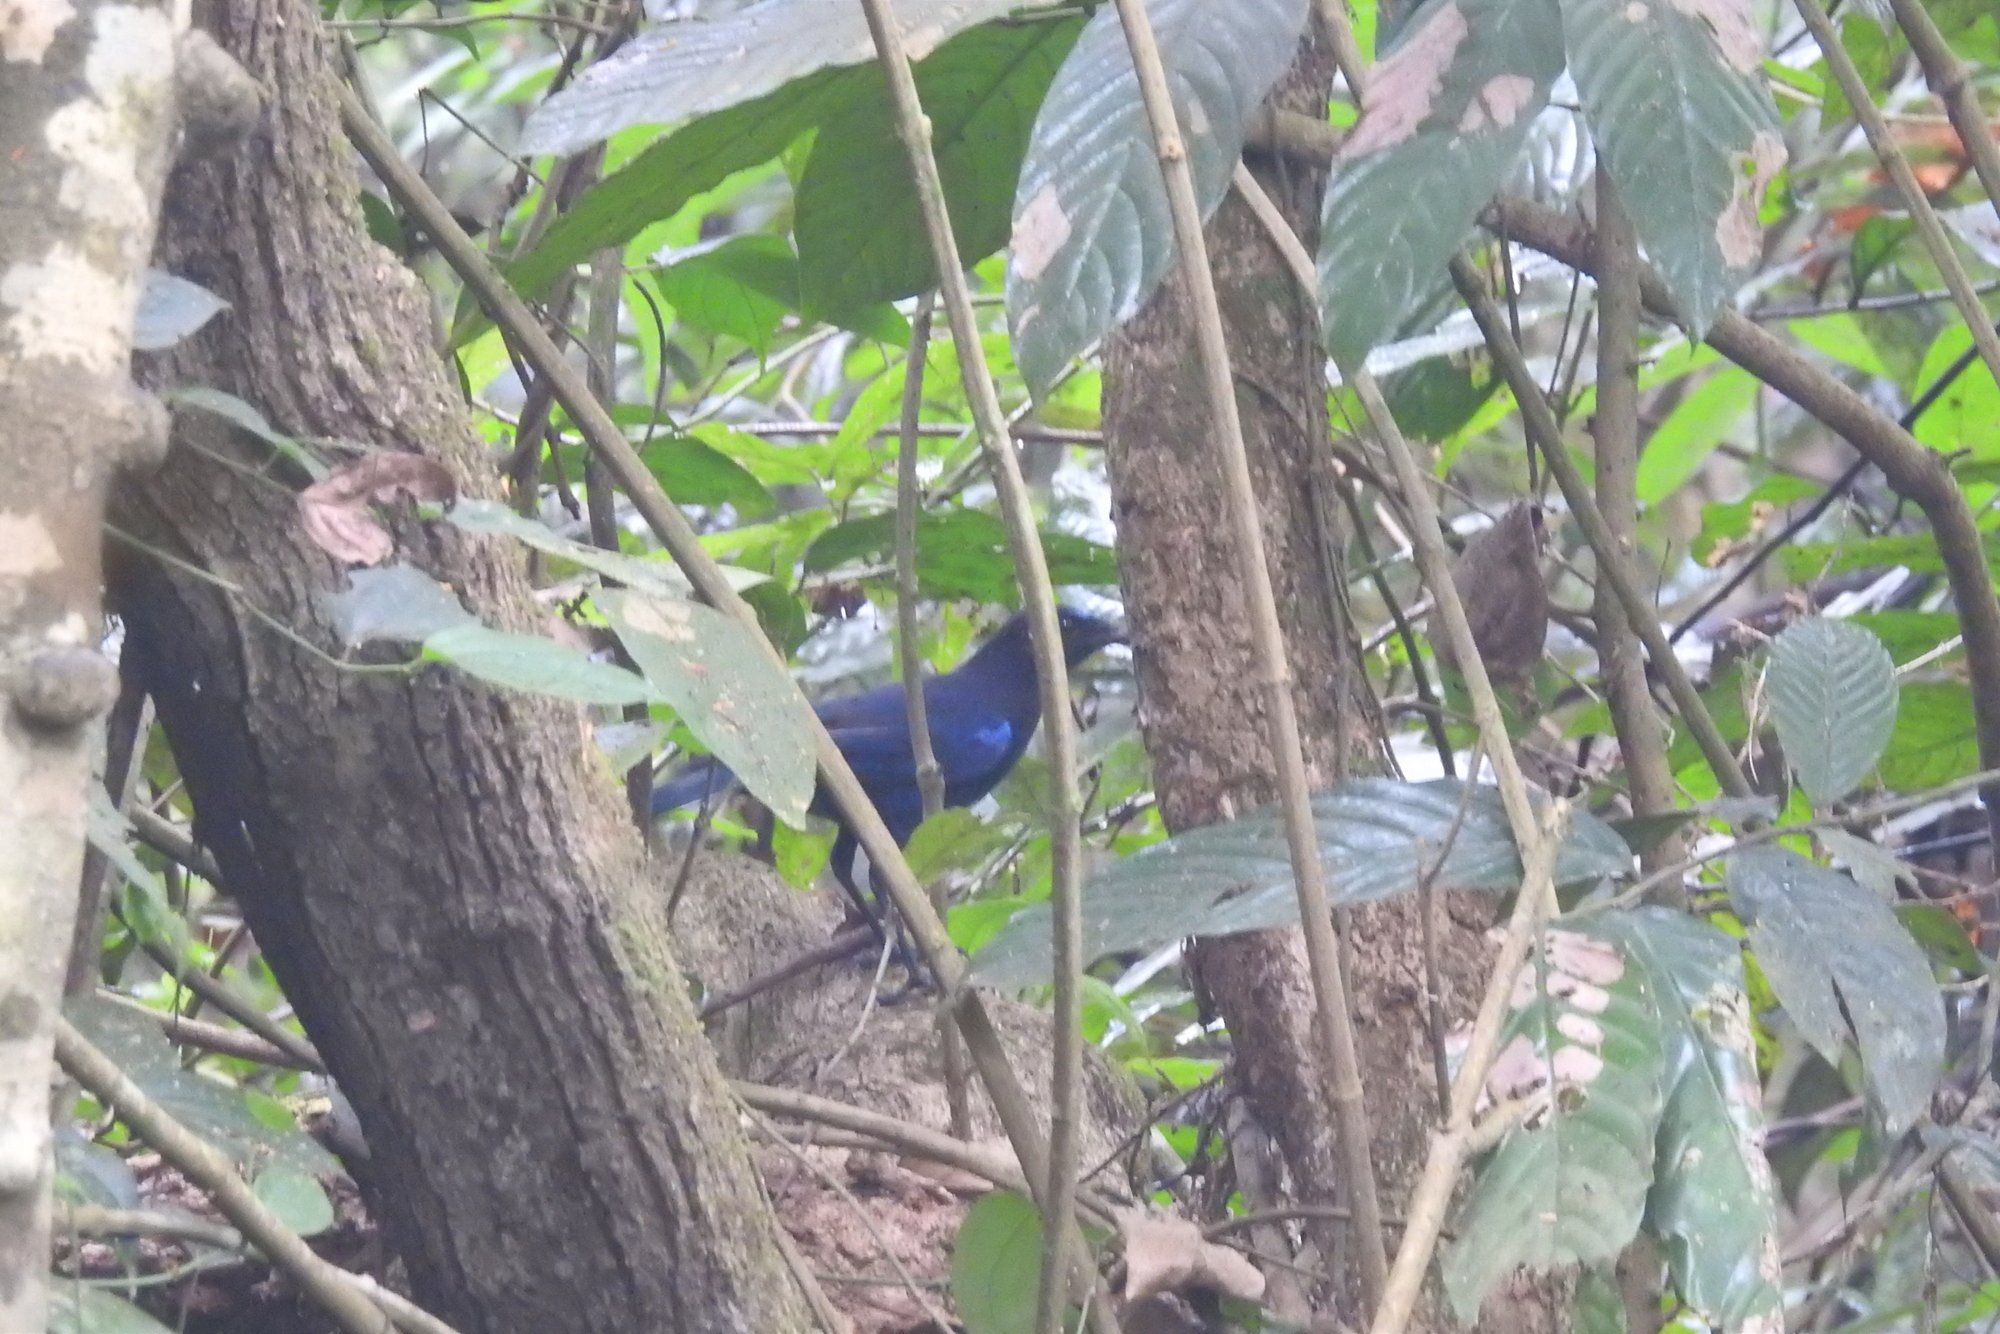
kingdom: Animalia
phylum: Chordata
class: Aves
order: Passeriformes
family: Muscicapidae
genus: Myophonus
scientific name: Myophonus horsfieldii
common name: Malabar whistling-thrush
